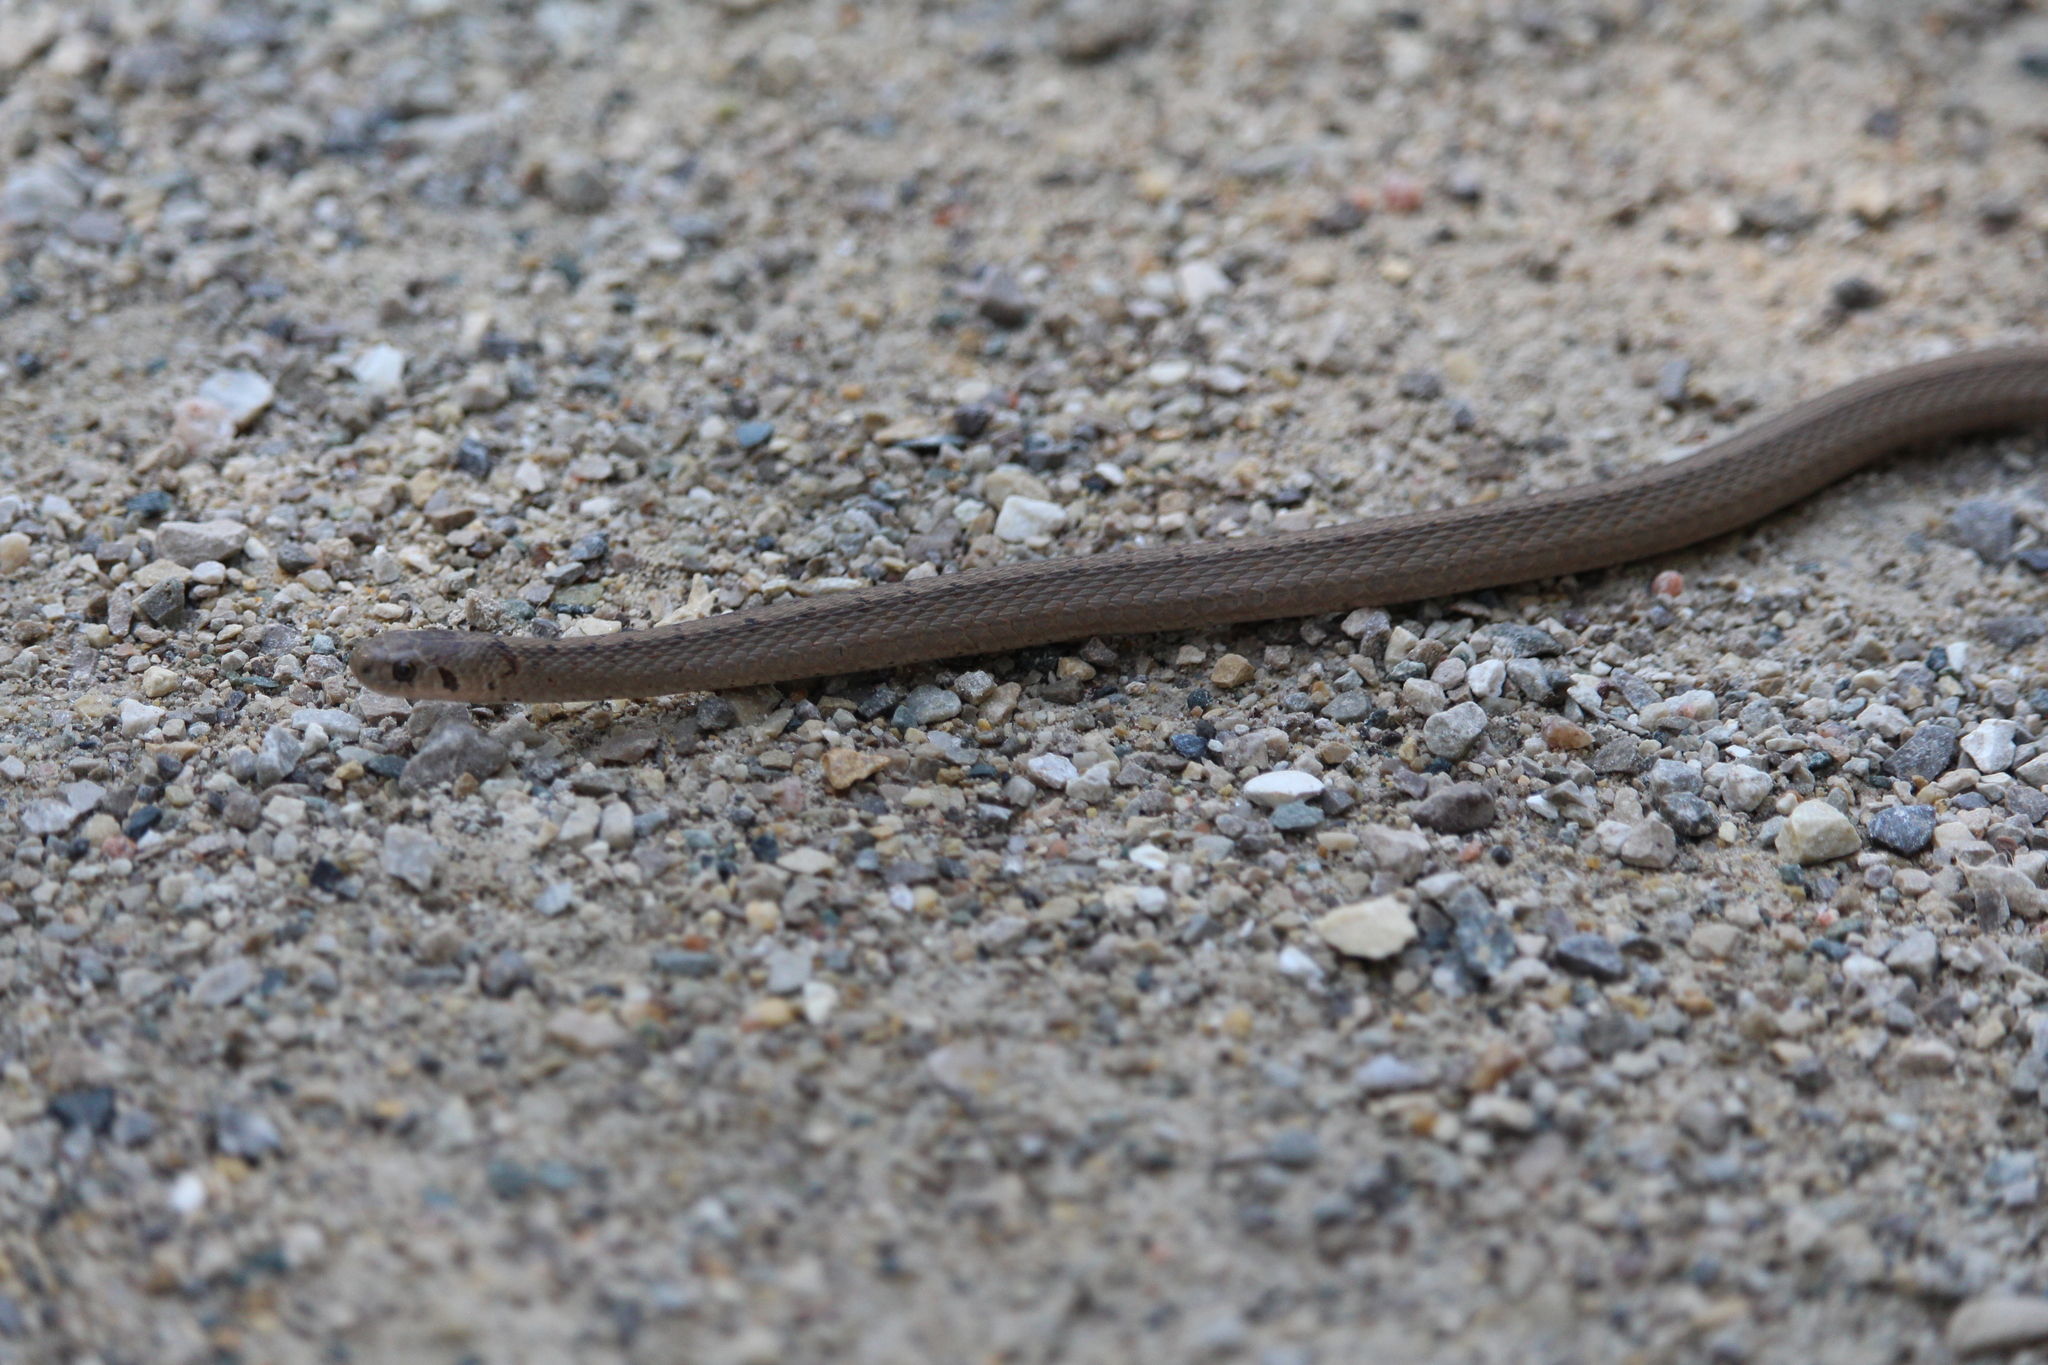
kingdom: Animalia
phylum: Chordata
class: Squamata
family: Colubridae
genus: Storeria
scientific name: Storeria dekayi
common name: (dekay’s) brown snake
